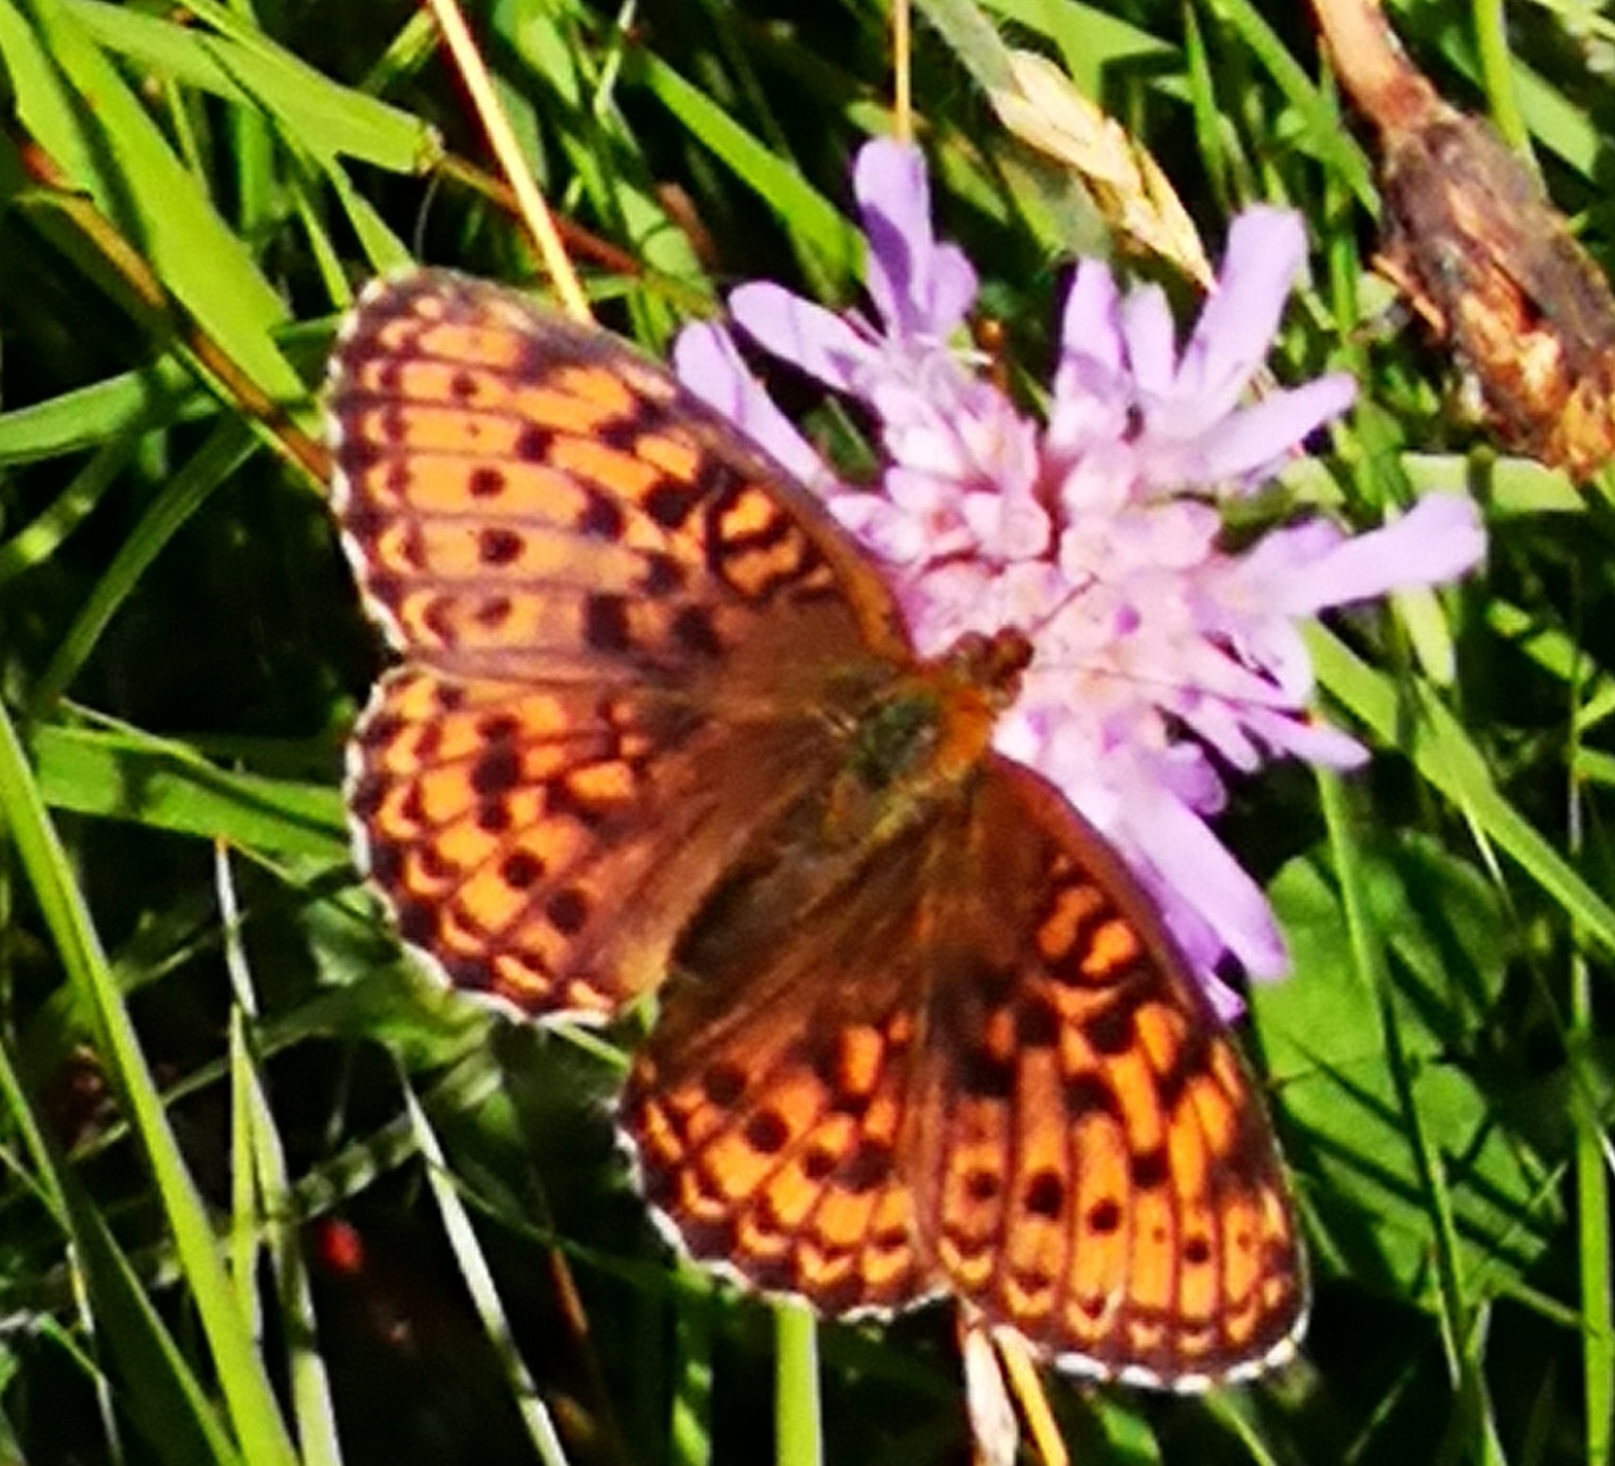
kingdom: Animalia
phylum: Arthropoda
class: Insecta
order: Lepidoptera
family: Nymphalidae
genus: Brenthis
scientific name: Brenthis ino
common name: Lesser marbled fritillary
